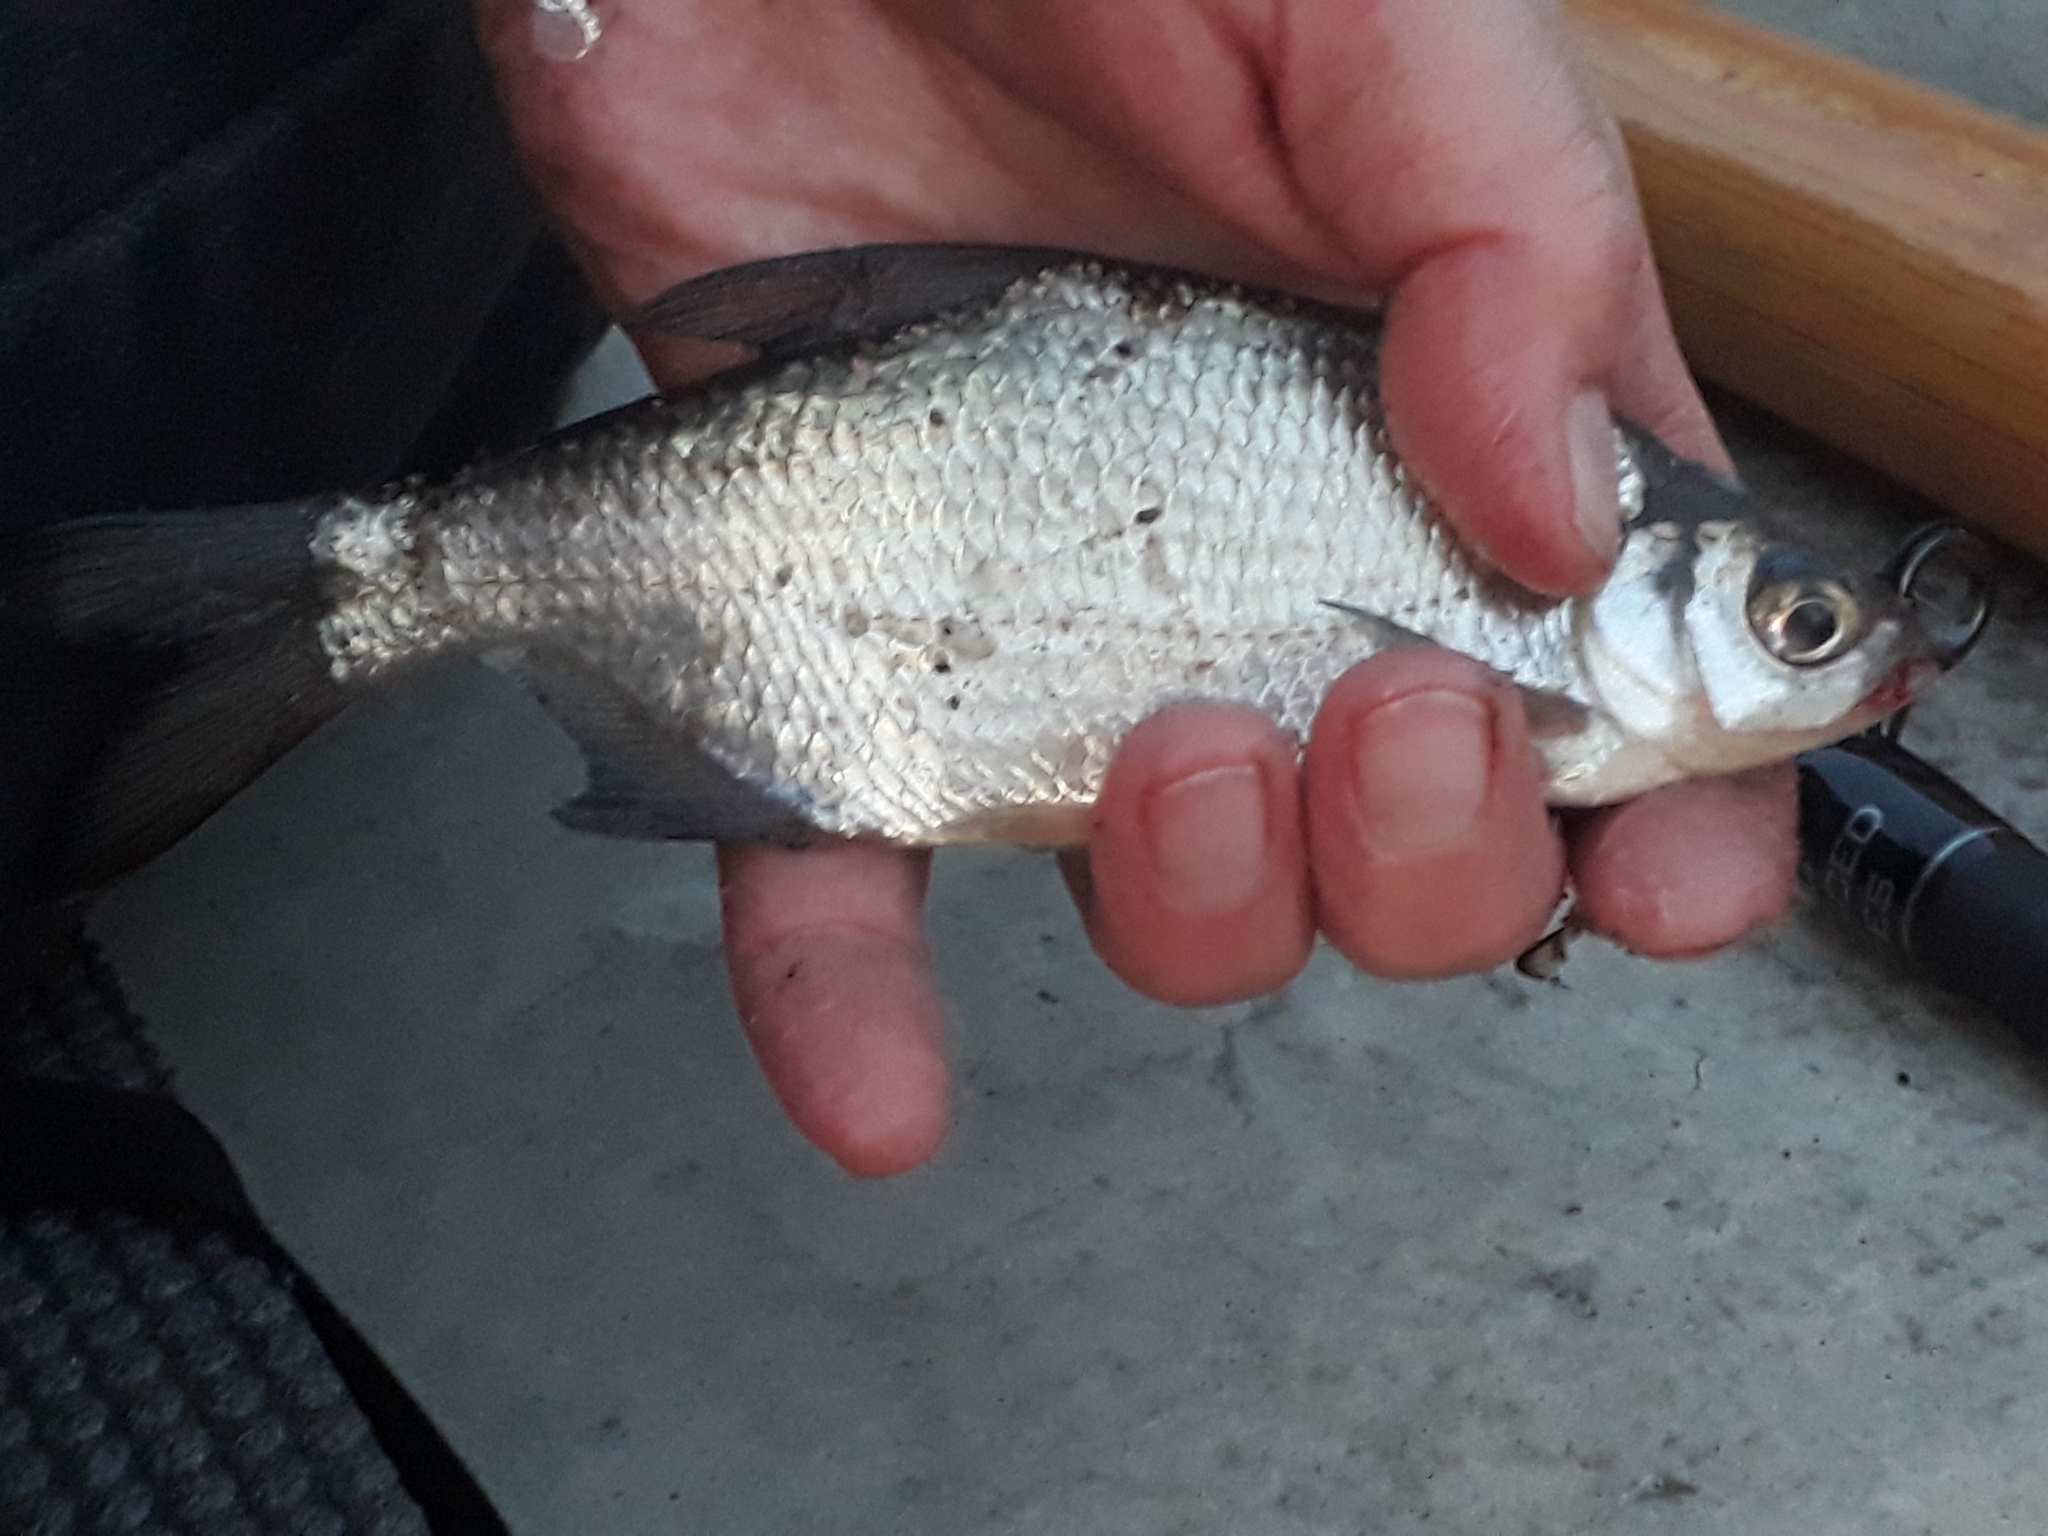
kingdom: Animalia
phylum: Chordata
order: Cypriniformes
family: Cyprinidae
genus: Abramis
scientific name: Abramis brama
